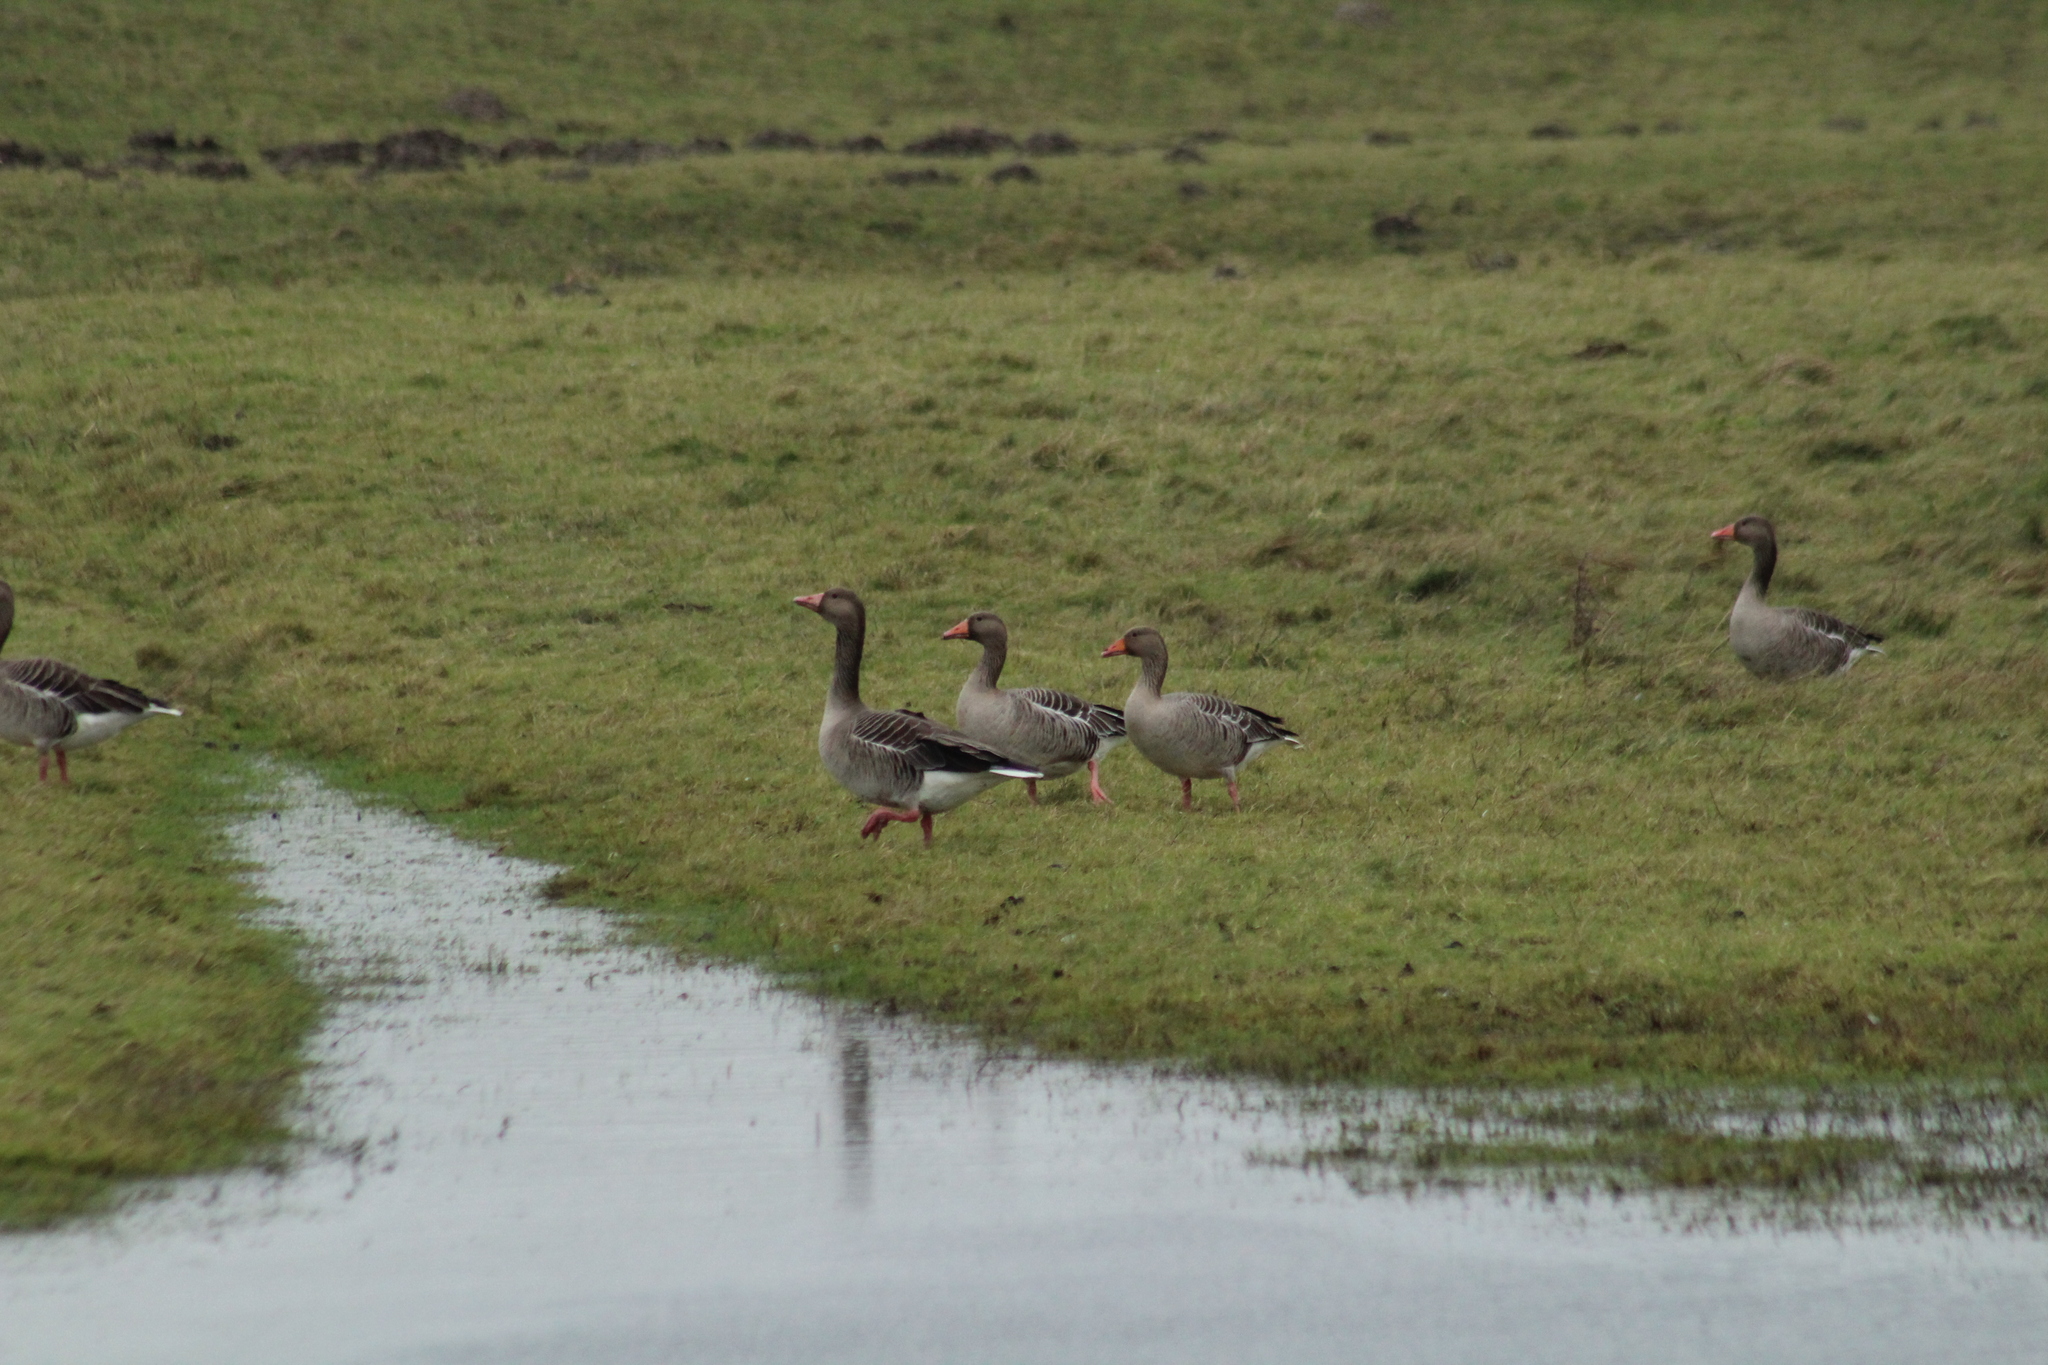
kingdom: Animalia
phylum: Chordata
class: Aves
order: Anseriformes
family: Anatidae
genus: Anser
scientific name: Anser anser
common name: Greylag goose
